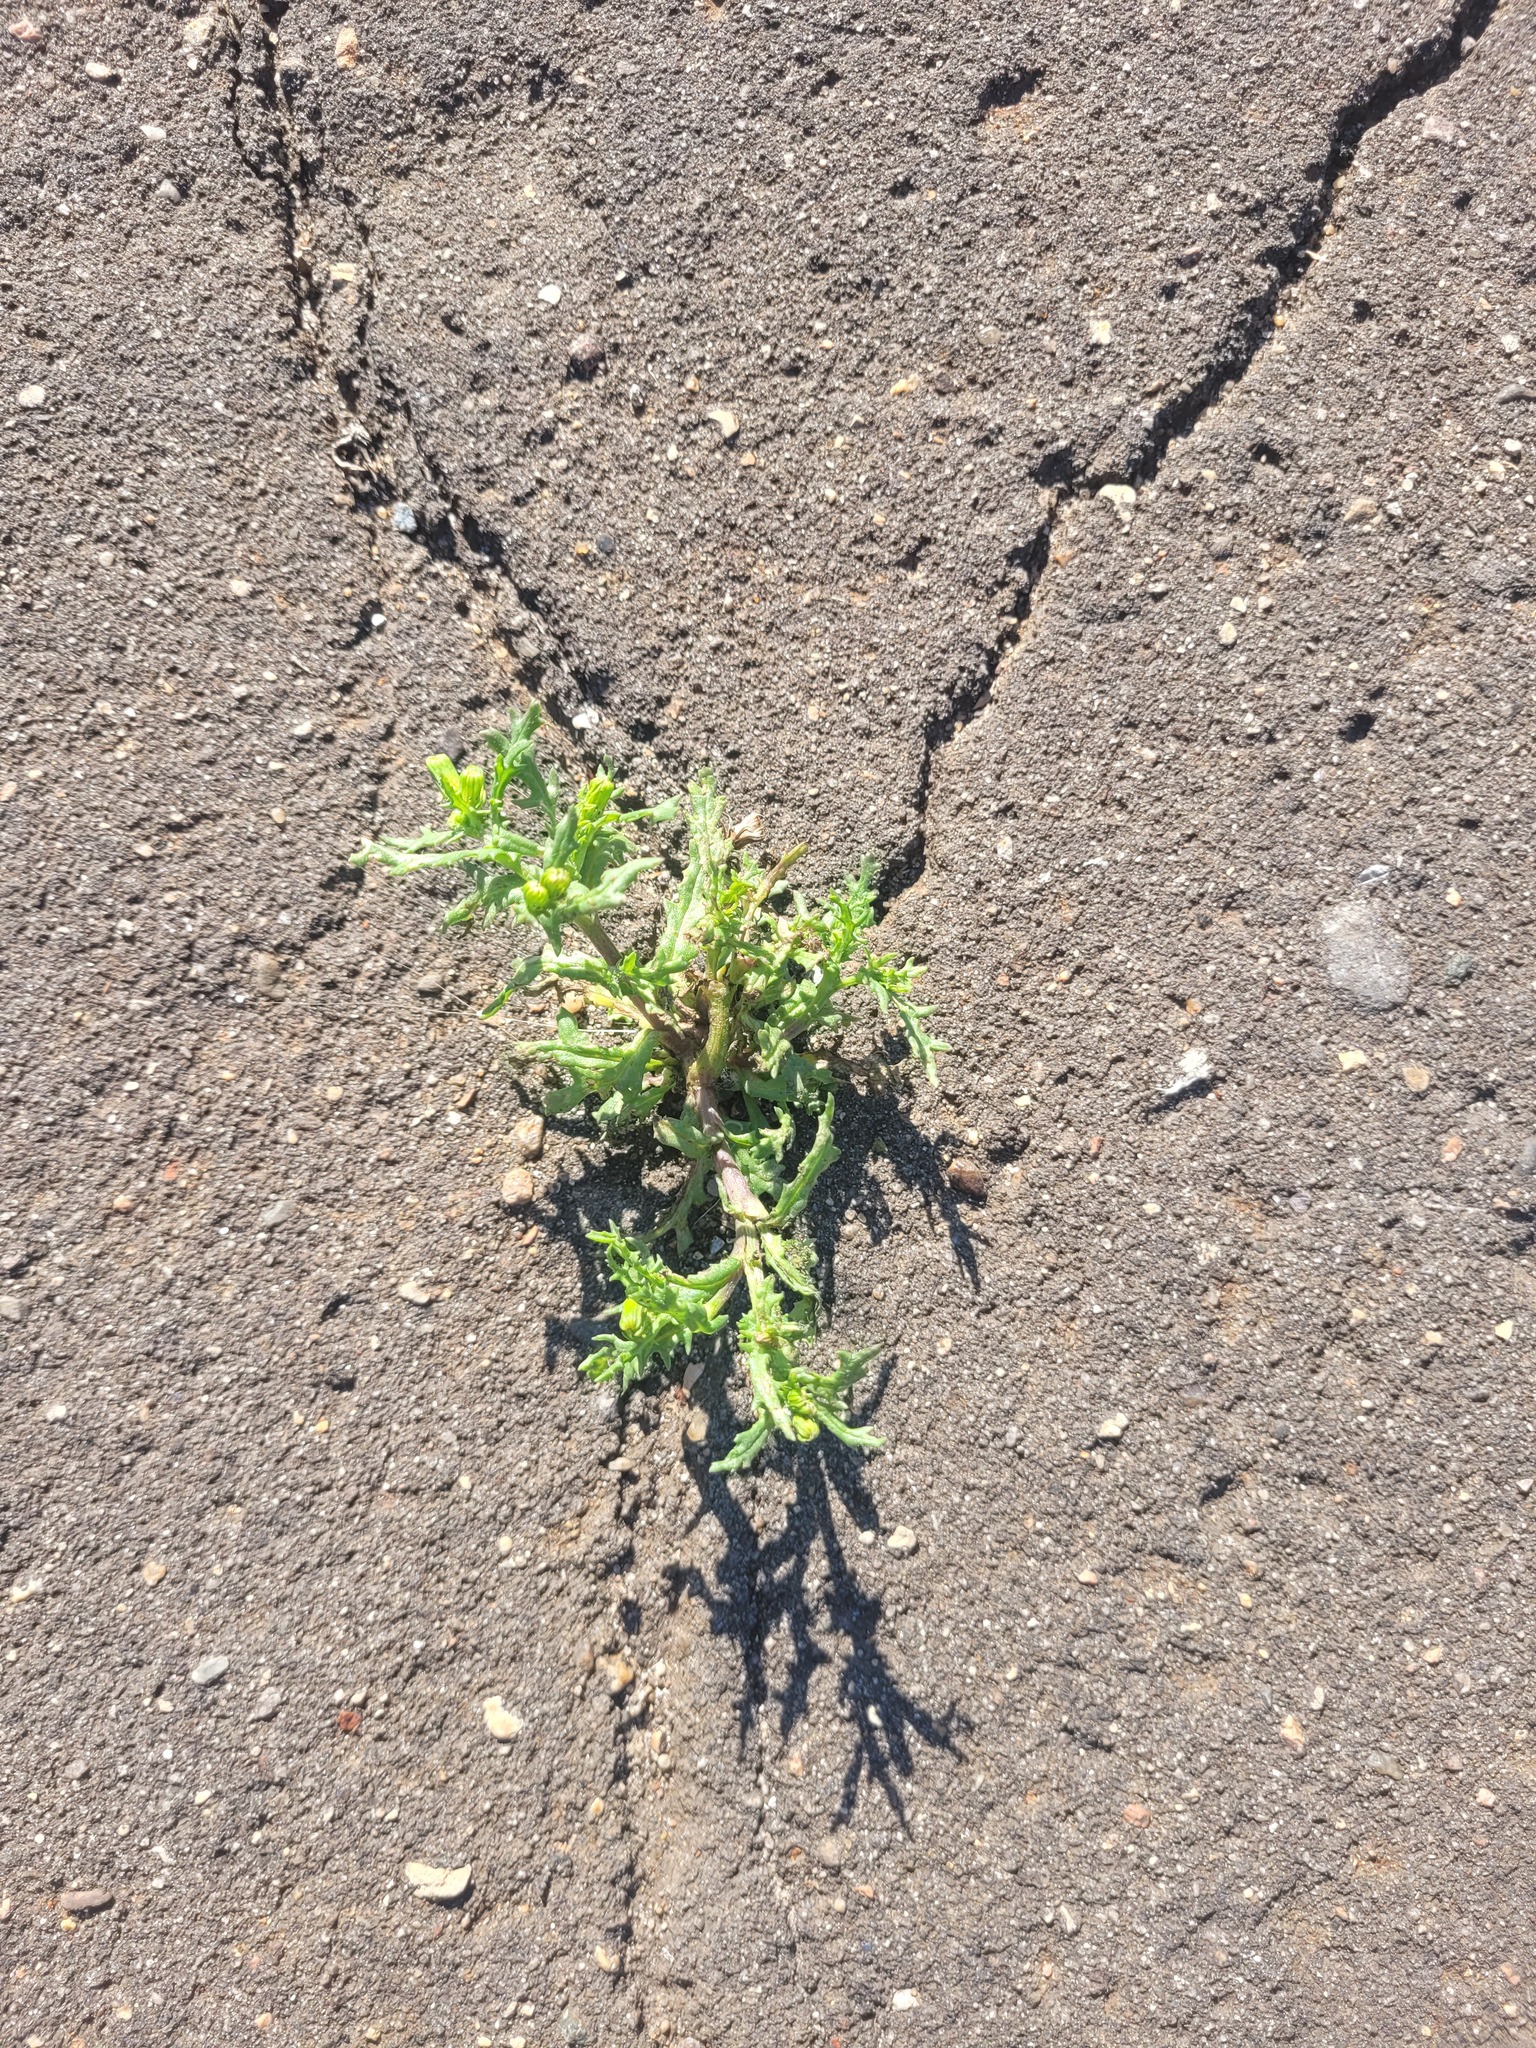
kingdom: Plantae
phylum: Tracheophyta
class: Magnoliopsida
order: Asterales
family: Asteraceae
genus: Senecio
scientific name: Senecio vulgaris
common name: Old-man-in-the-spring
